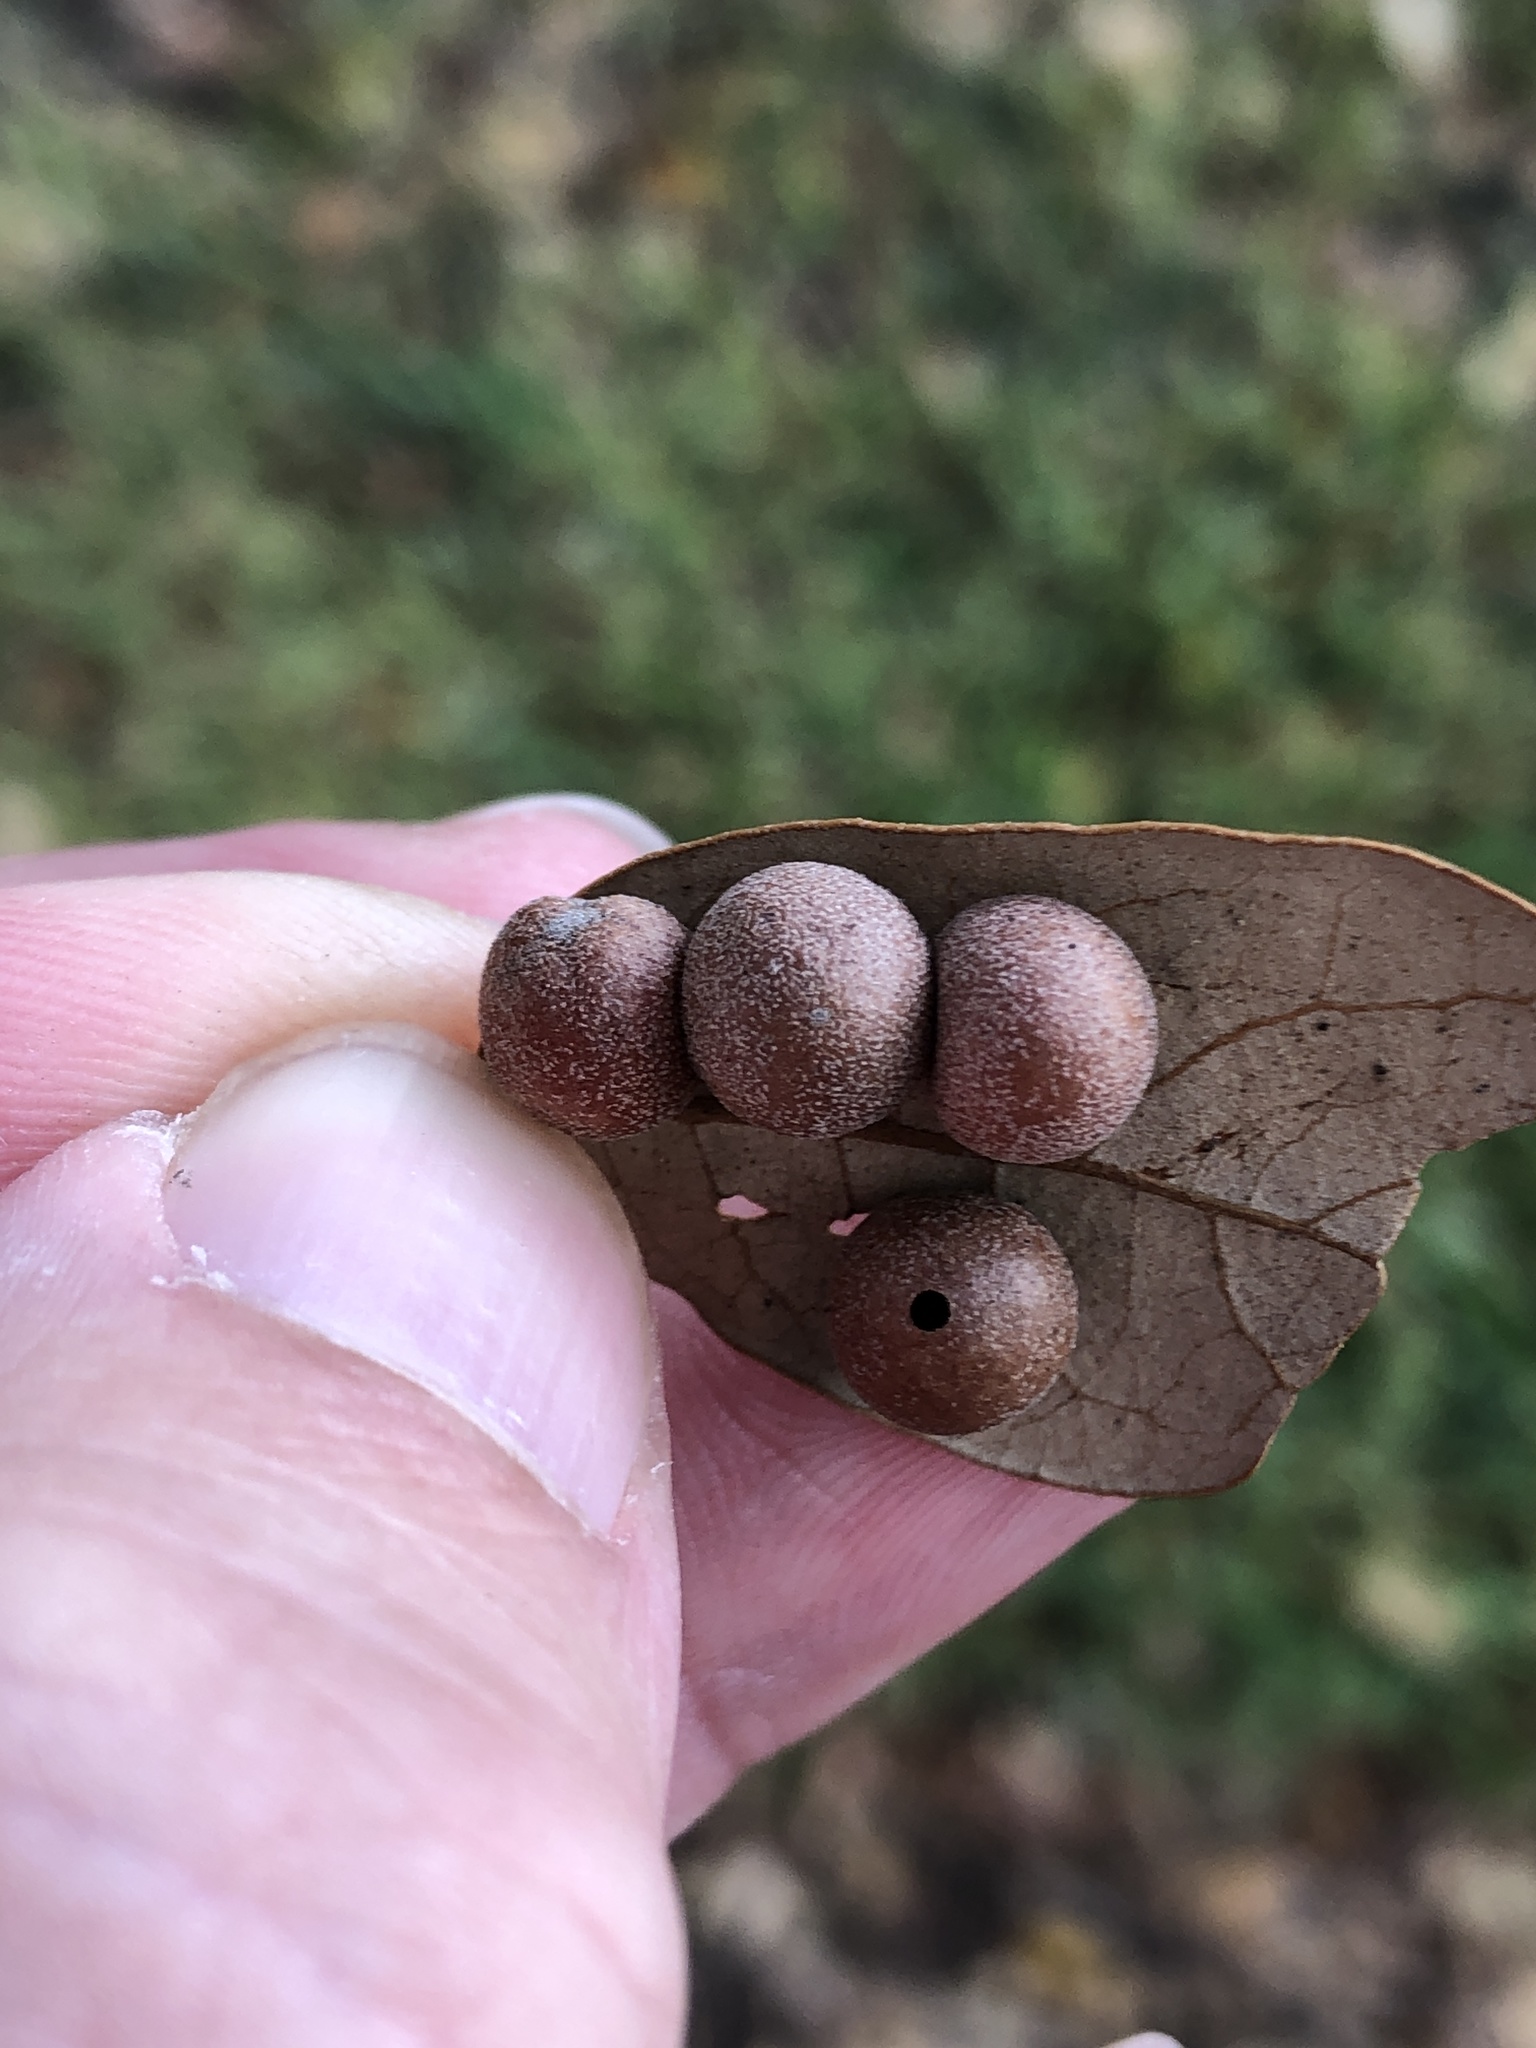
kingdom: Animalia
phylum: Arthropoda
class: Insecta
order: Hymenoptera
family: Cynipidae
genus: Belonocnema
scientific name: Belonocnema kinseyi
